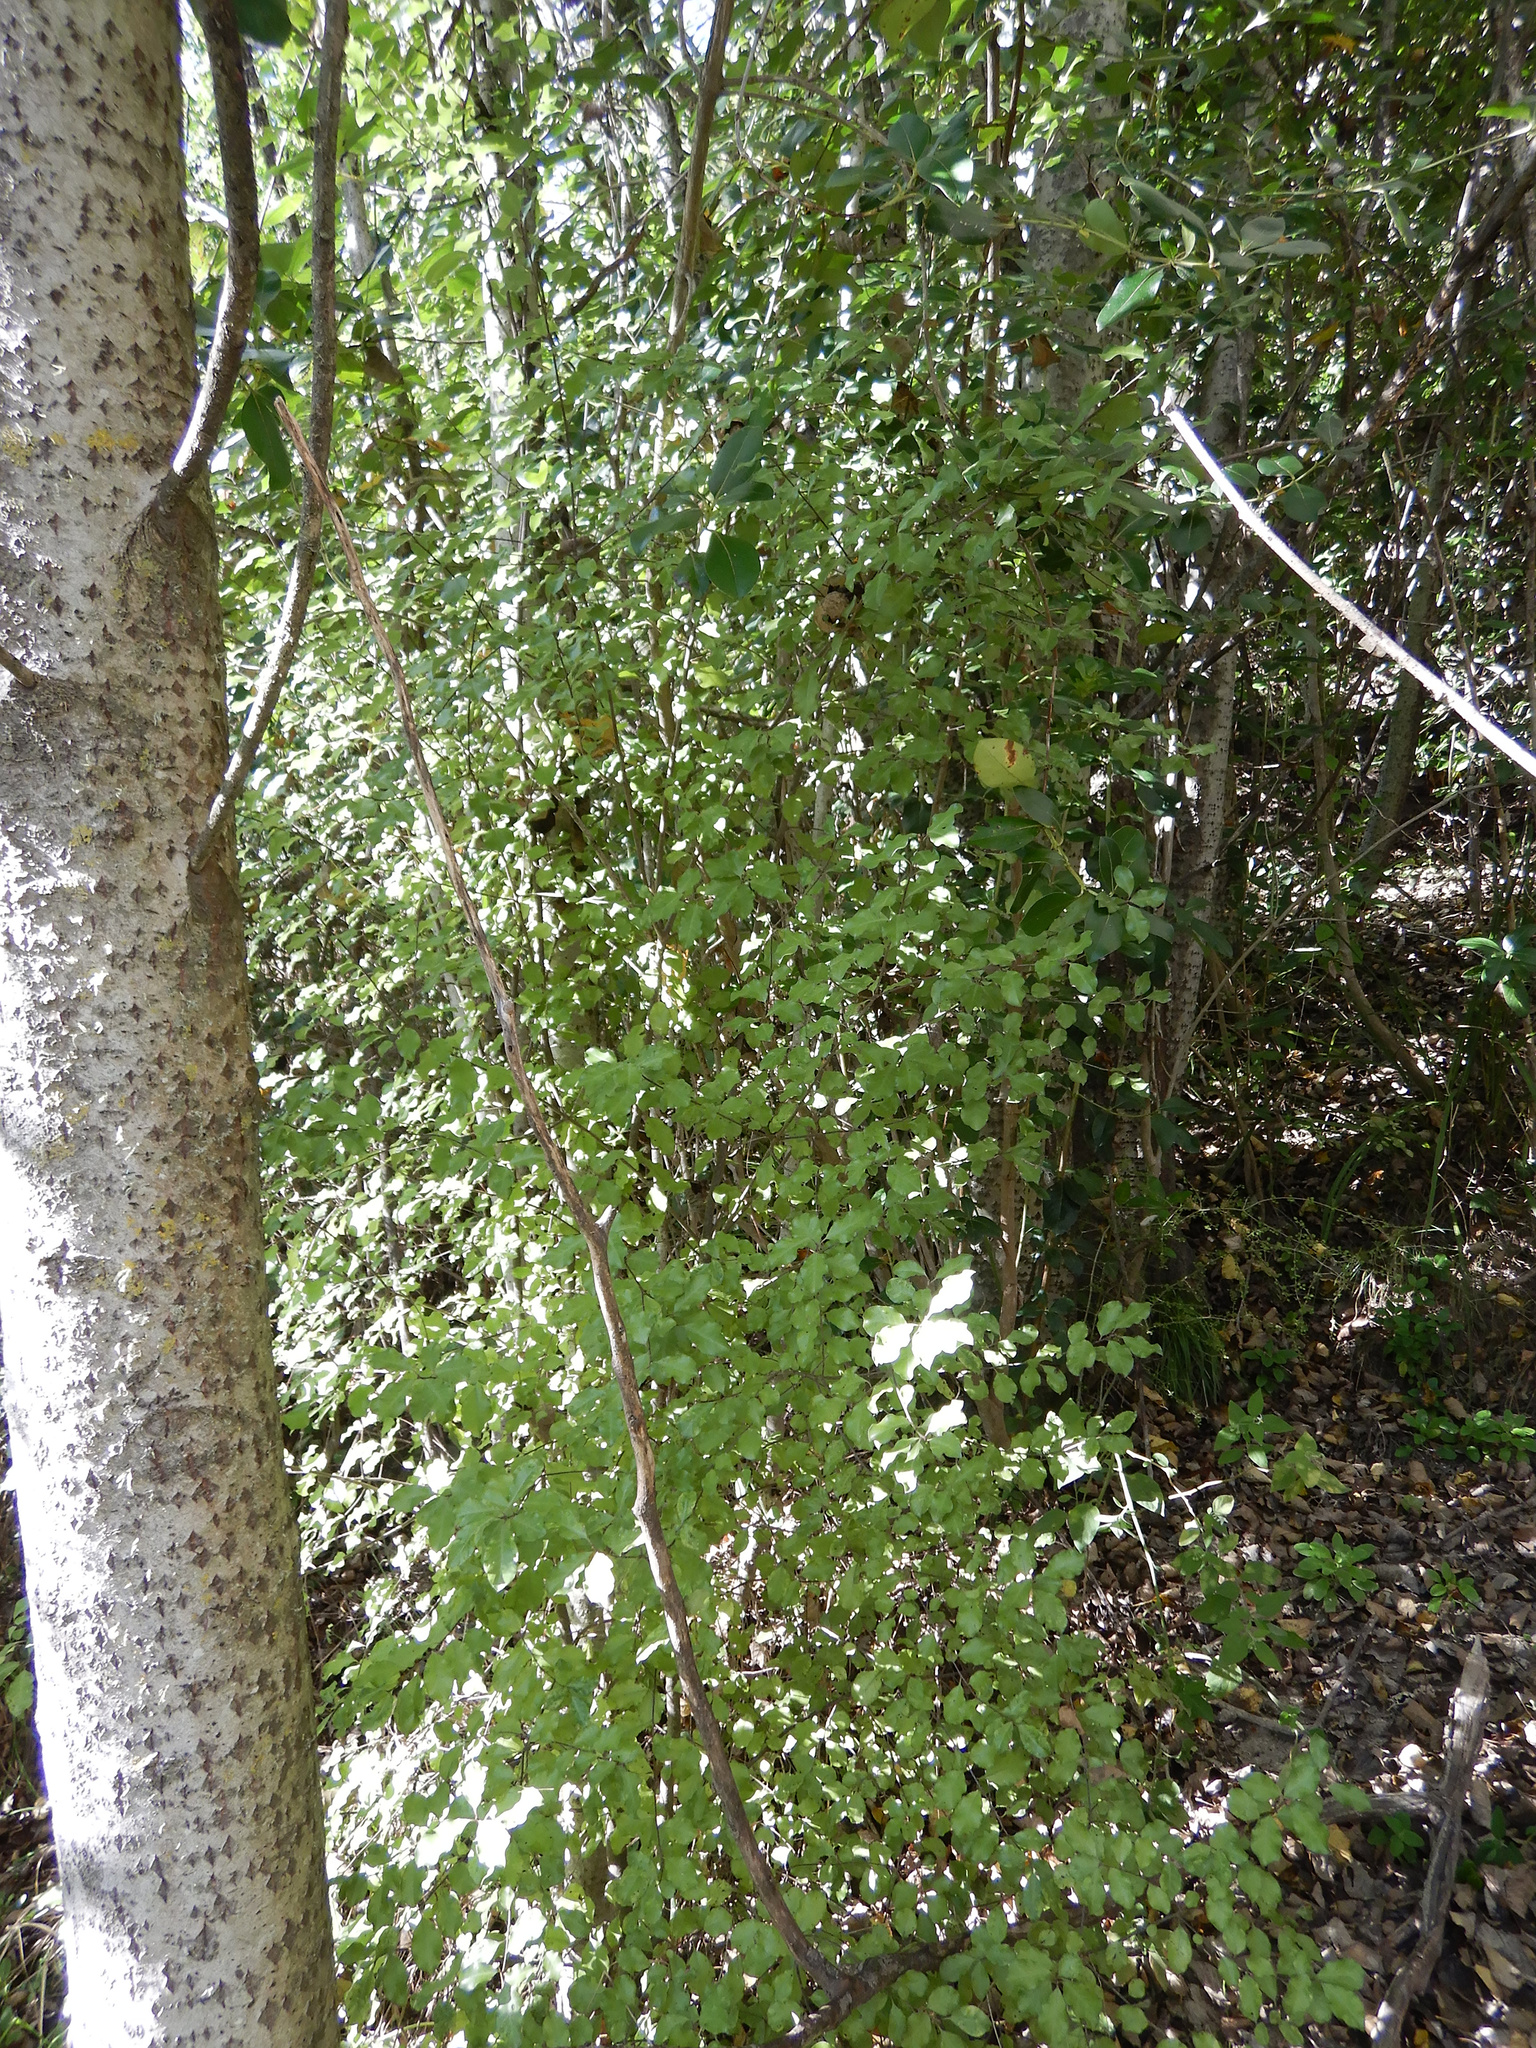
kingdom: Plantae
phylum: Tracheophyta
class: Magnoliopsida
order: Apiales
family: Pittosporaceae
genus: Pittosporum
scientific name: Pittosporum tenuifolium
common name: Kohuhu
